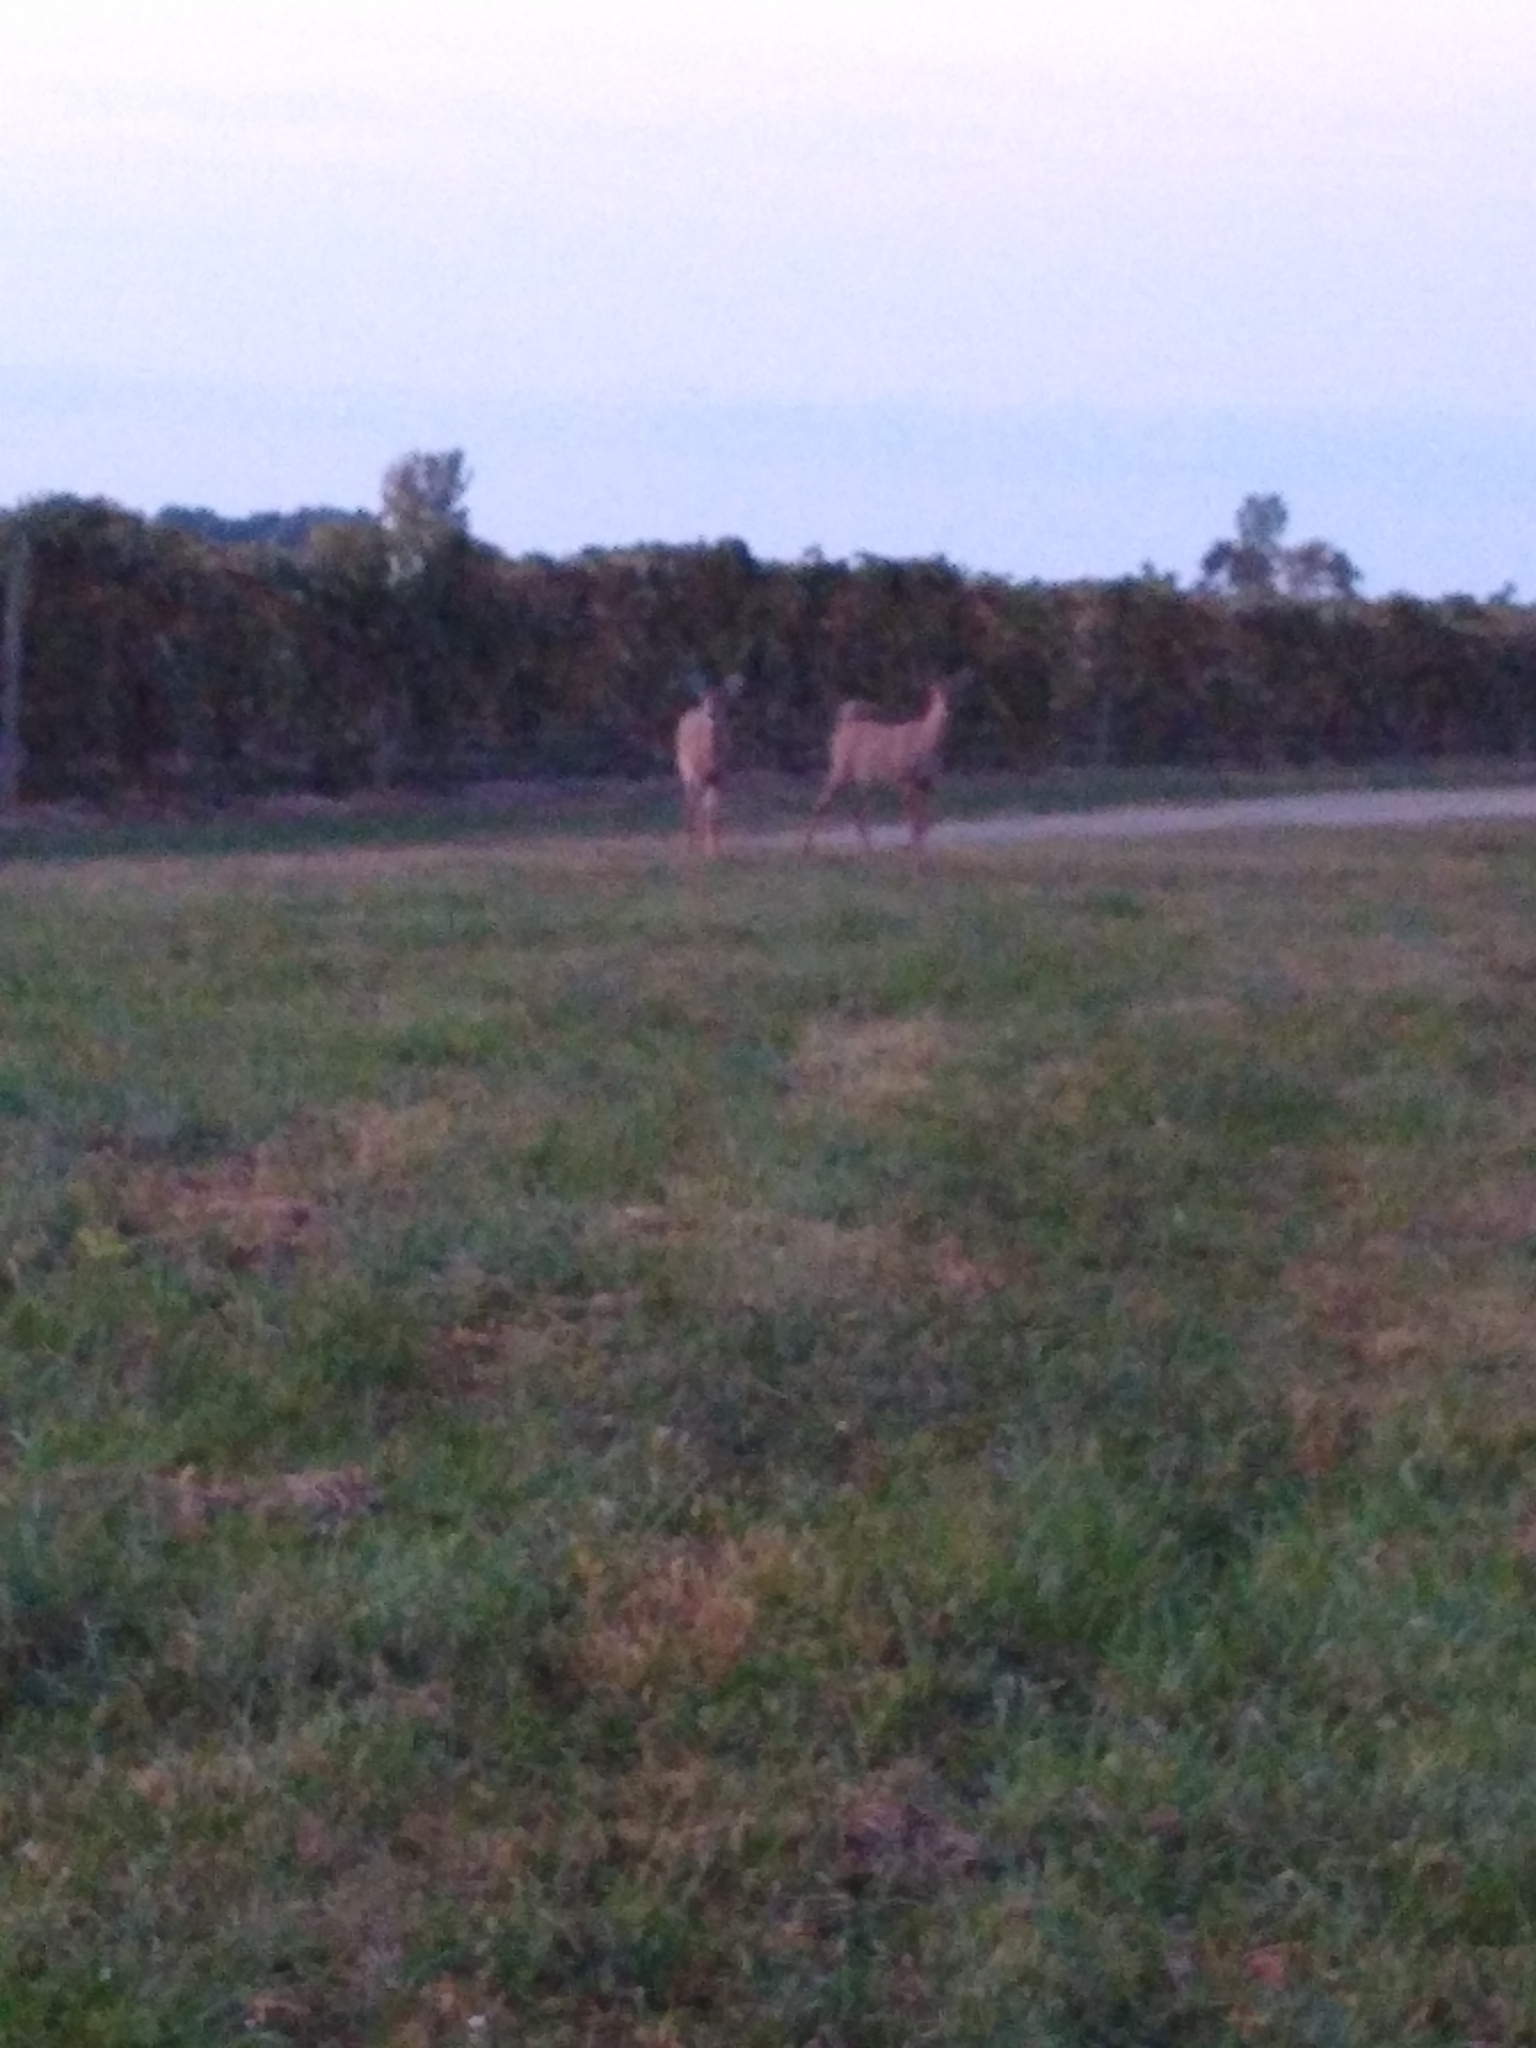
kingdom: Animalia
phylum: Chordata
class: Mammalia
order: Artiodactyla
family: Cervidae
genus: Odocoileus
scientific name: Odocoileus virginianus
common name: White-tailed deer
